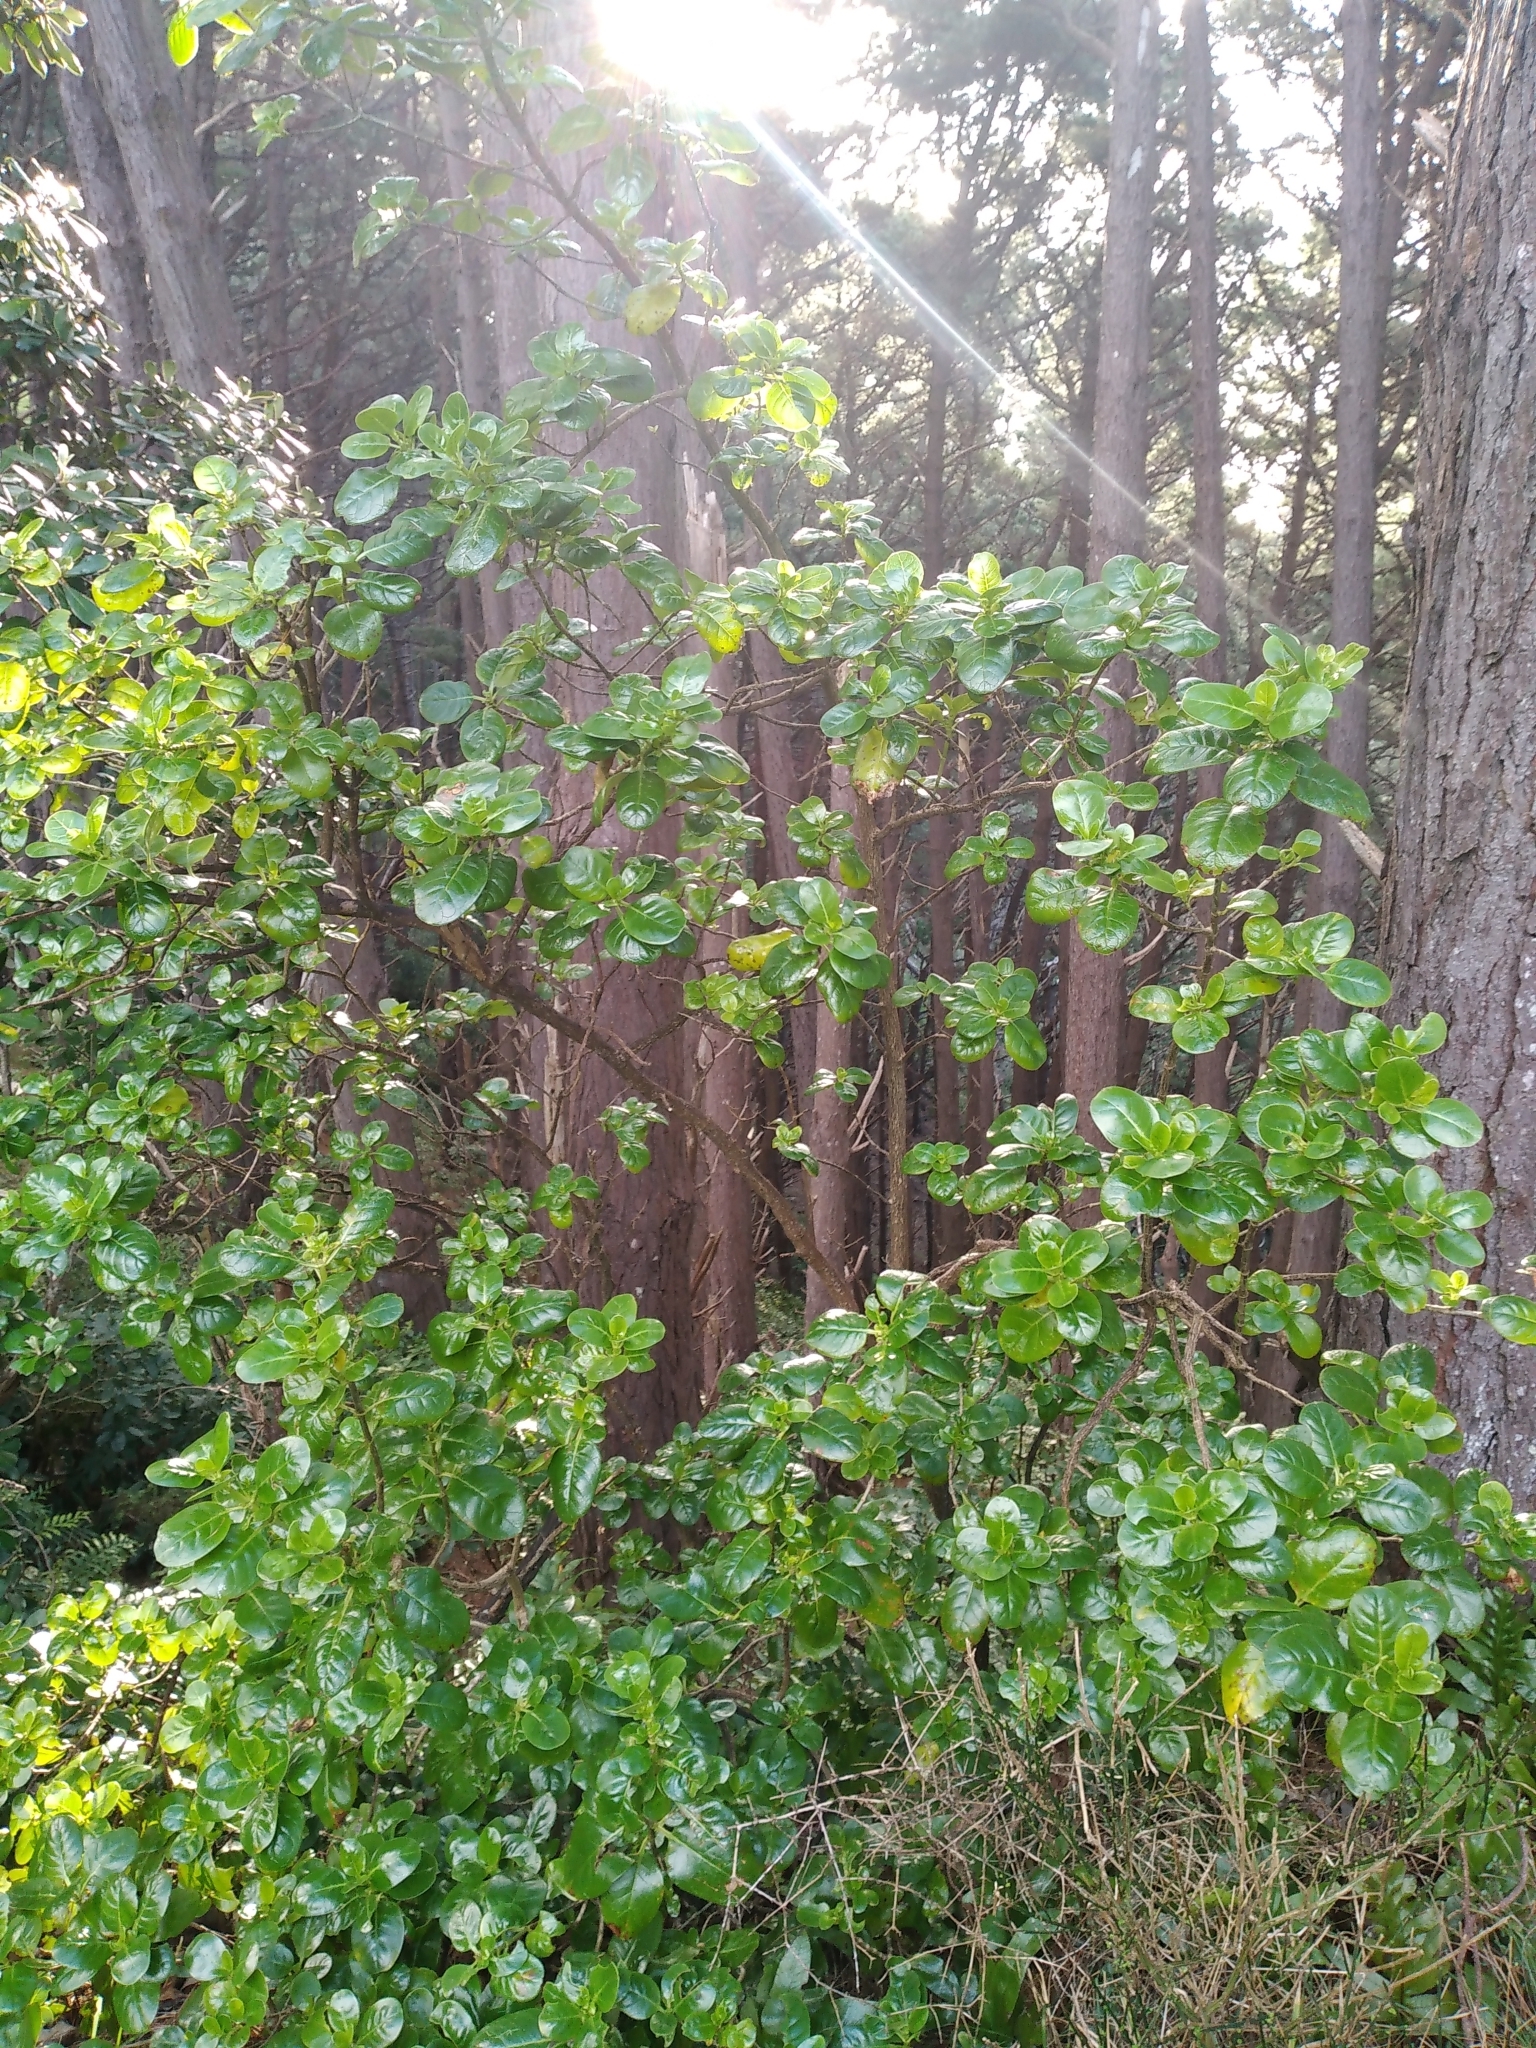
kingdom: Plantae
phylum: Tracheophyta
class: Magnoliopsida
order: Gentianales
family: Rubiaceae
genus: Coprosma
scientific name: Coprosma repens
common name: Tree bedstraw
